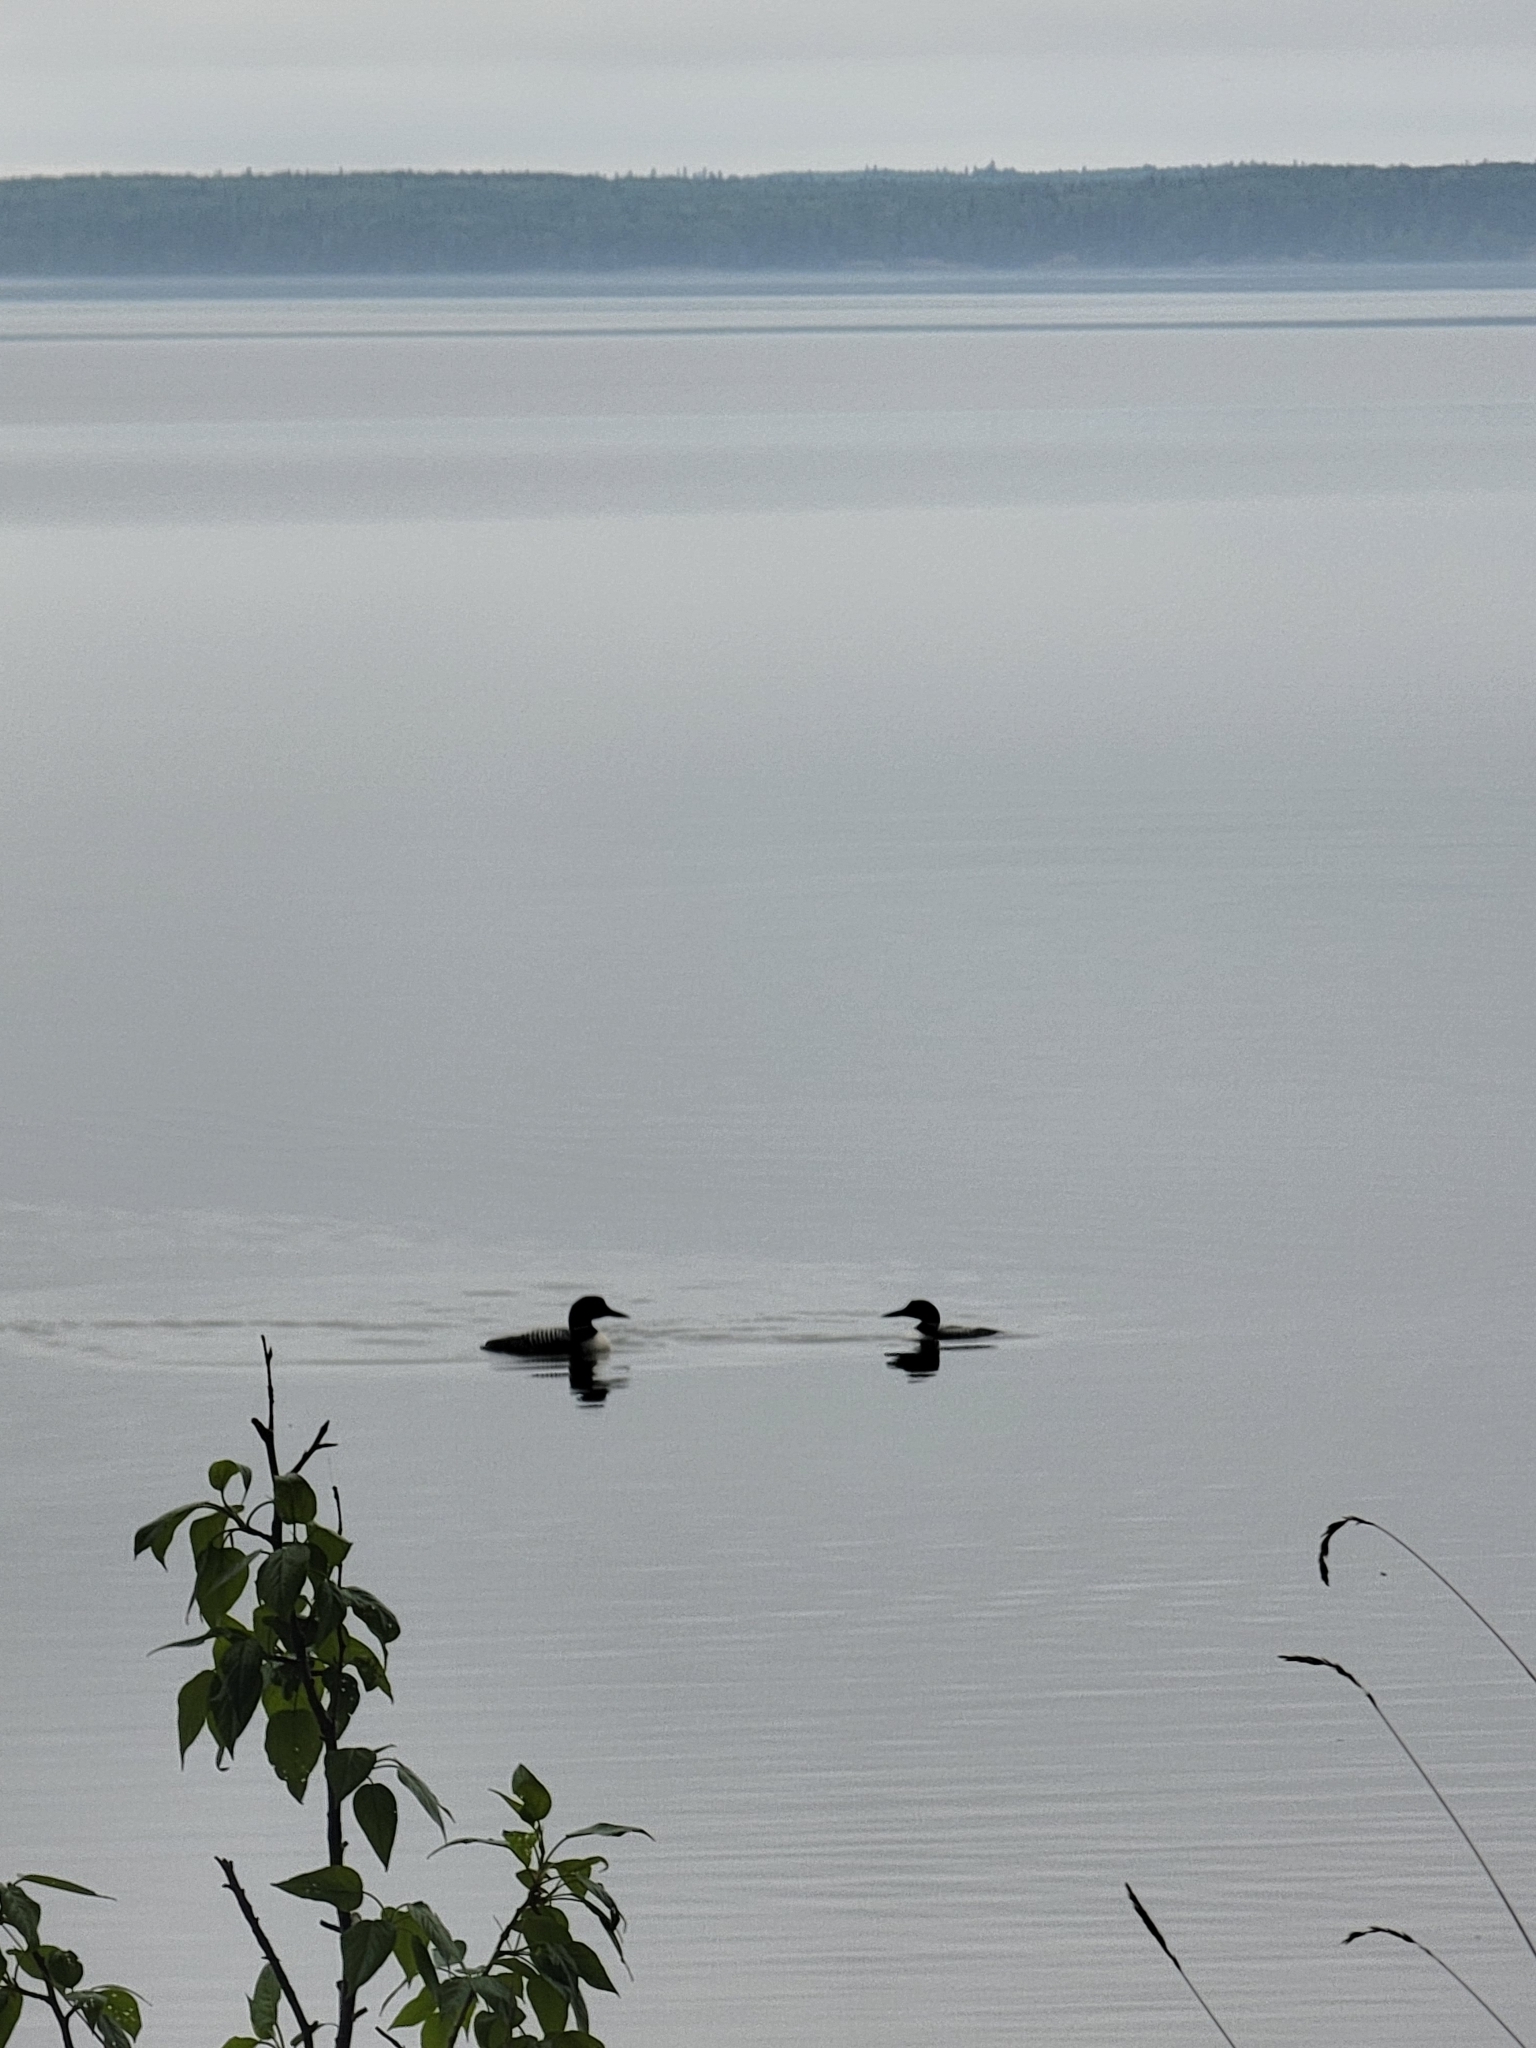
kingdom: Animalia
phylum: Chordata
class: Aves
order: Gaviiformes
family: Gaviidae
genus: Gavia
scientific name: Gavia immer
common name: Common loon
